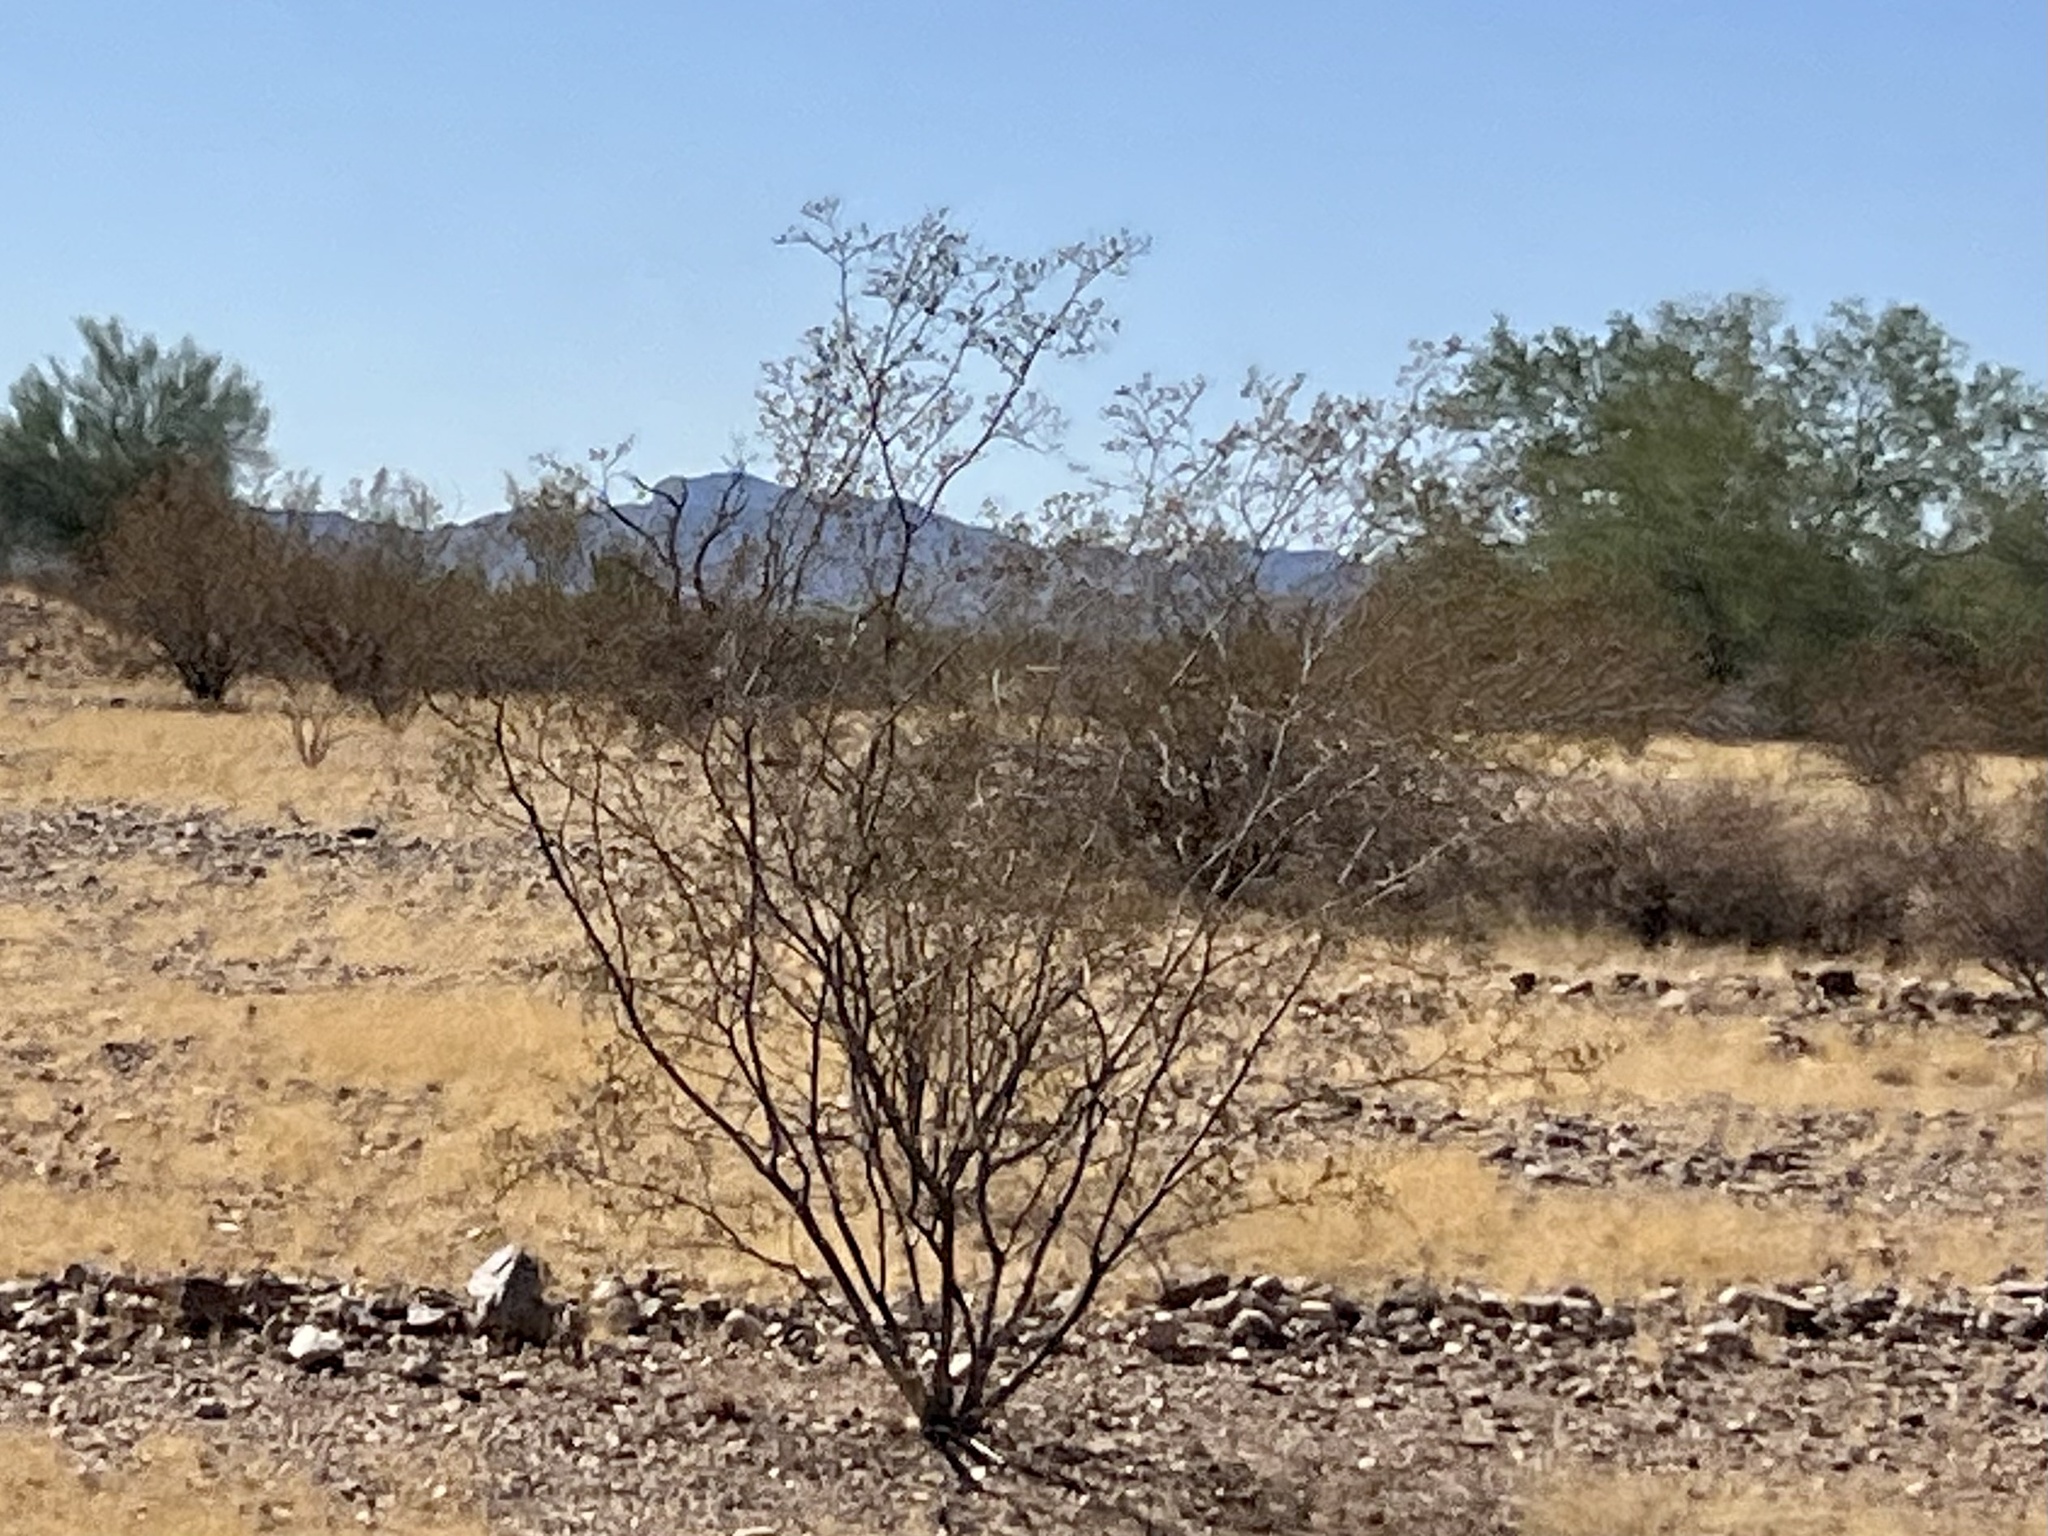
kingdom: Plantae
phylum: Tracheophyta
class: Magnoliopsida
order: Zygophyllales
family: Zygophyllaceae
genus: Larrea
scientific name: Larrea tridentata
